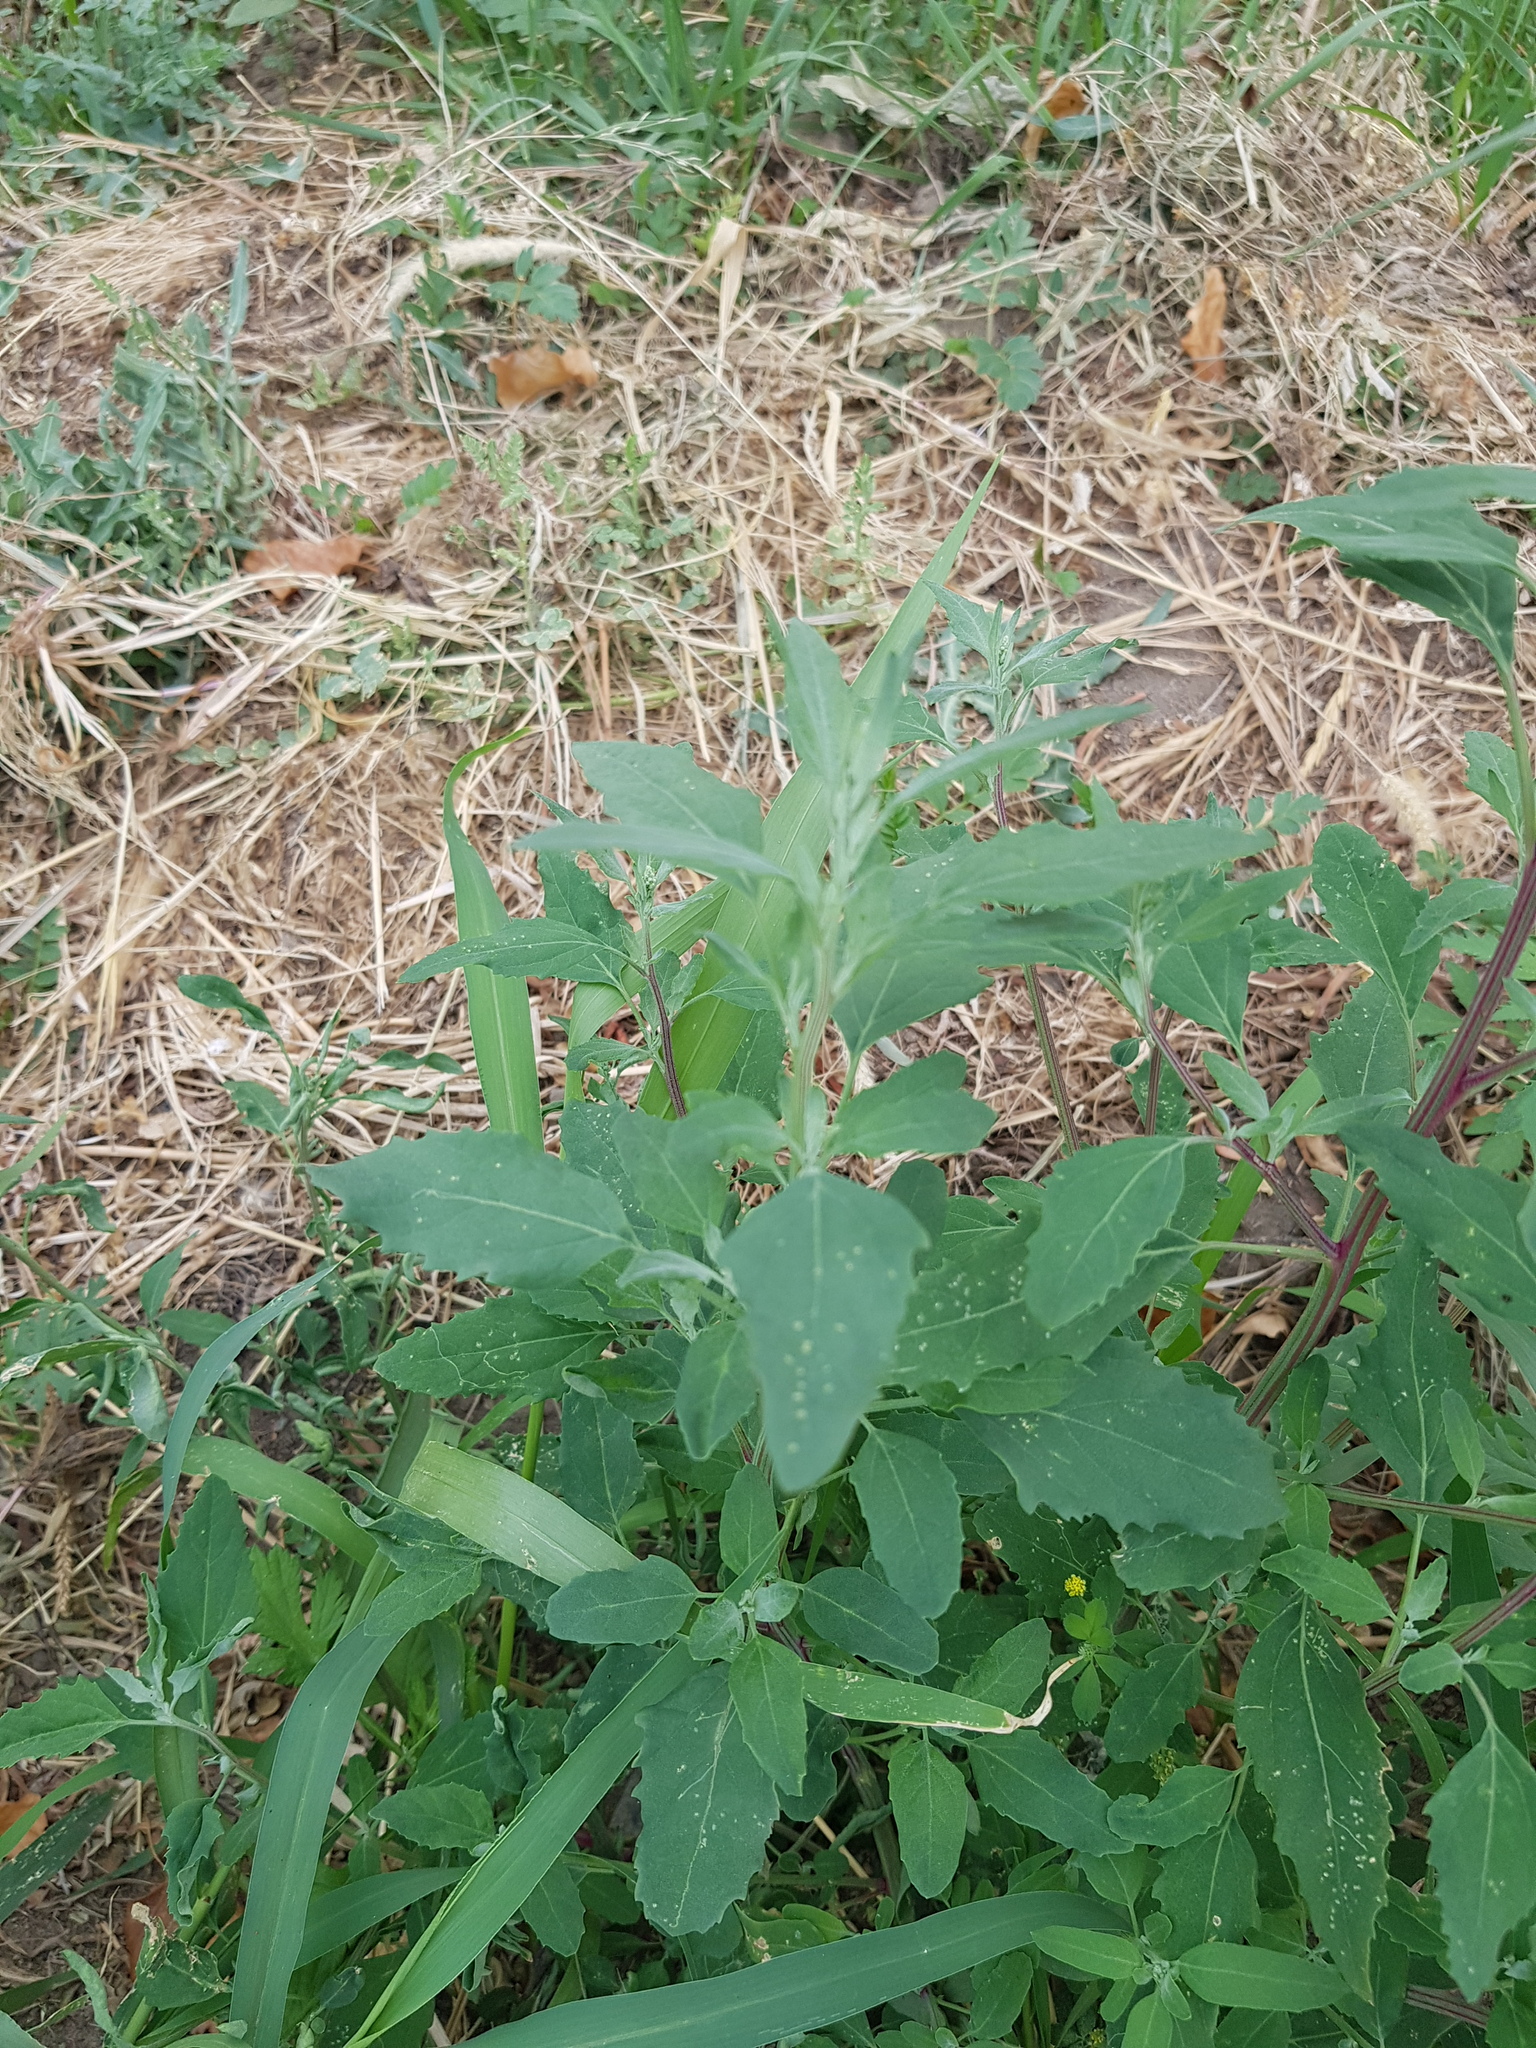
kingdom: Plantae
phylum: Tracheophyta
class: Magnoliopsida
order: Caryophyllales
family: Amaranthaceae
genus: Chenopodium
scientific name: Chenopodium album
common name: Fat-hen
